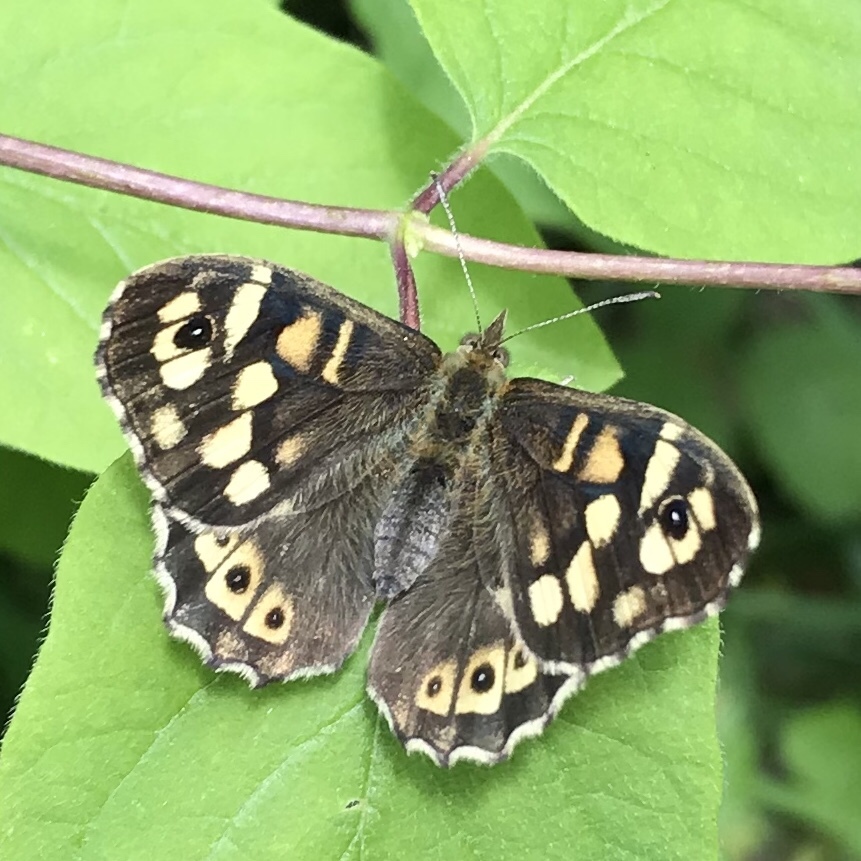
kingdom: Animalia
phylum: Arthropoda
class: Insecta
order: Lepidoptera
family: Nymphalidae
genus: Pararge
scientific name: Pararge aegeria
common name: Speckled wood
